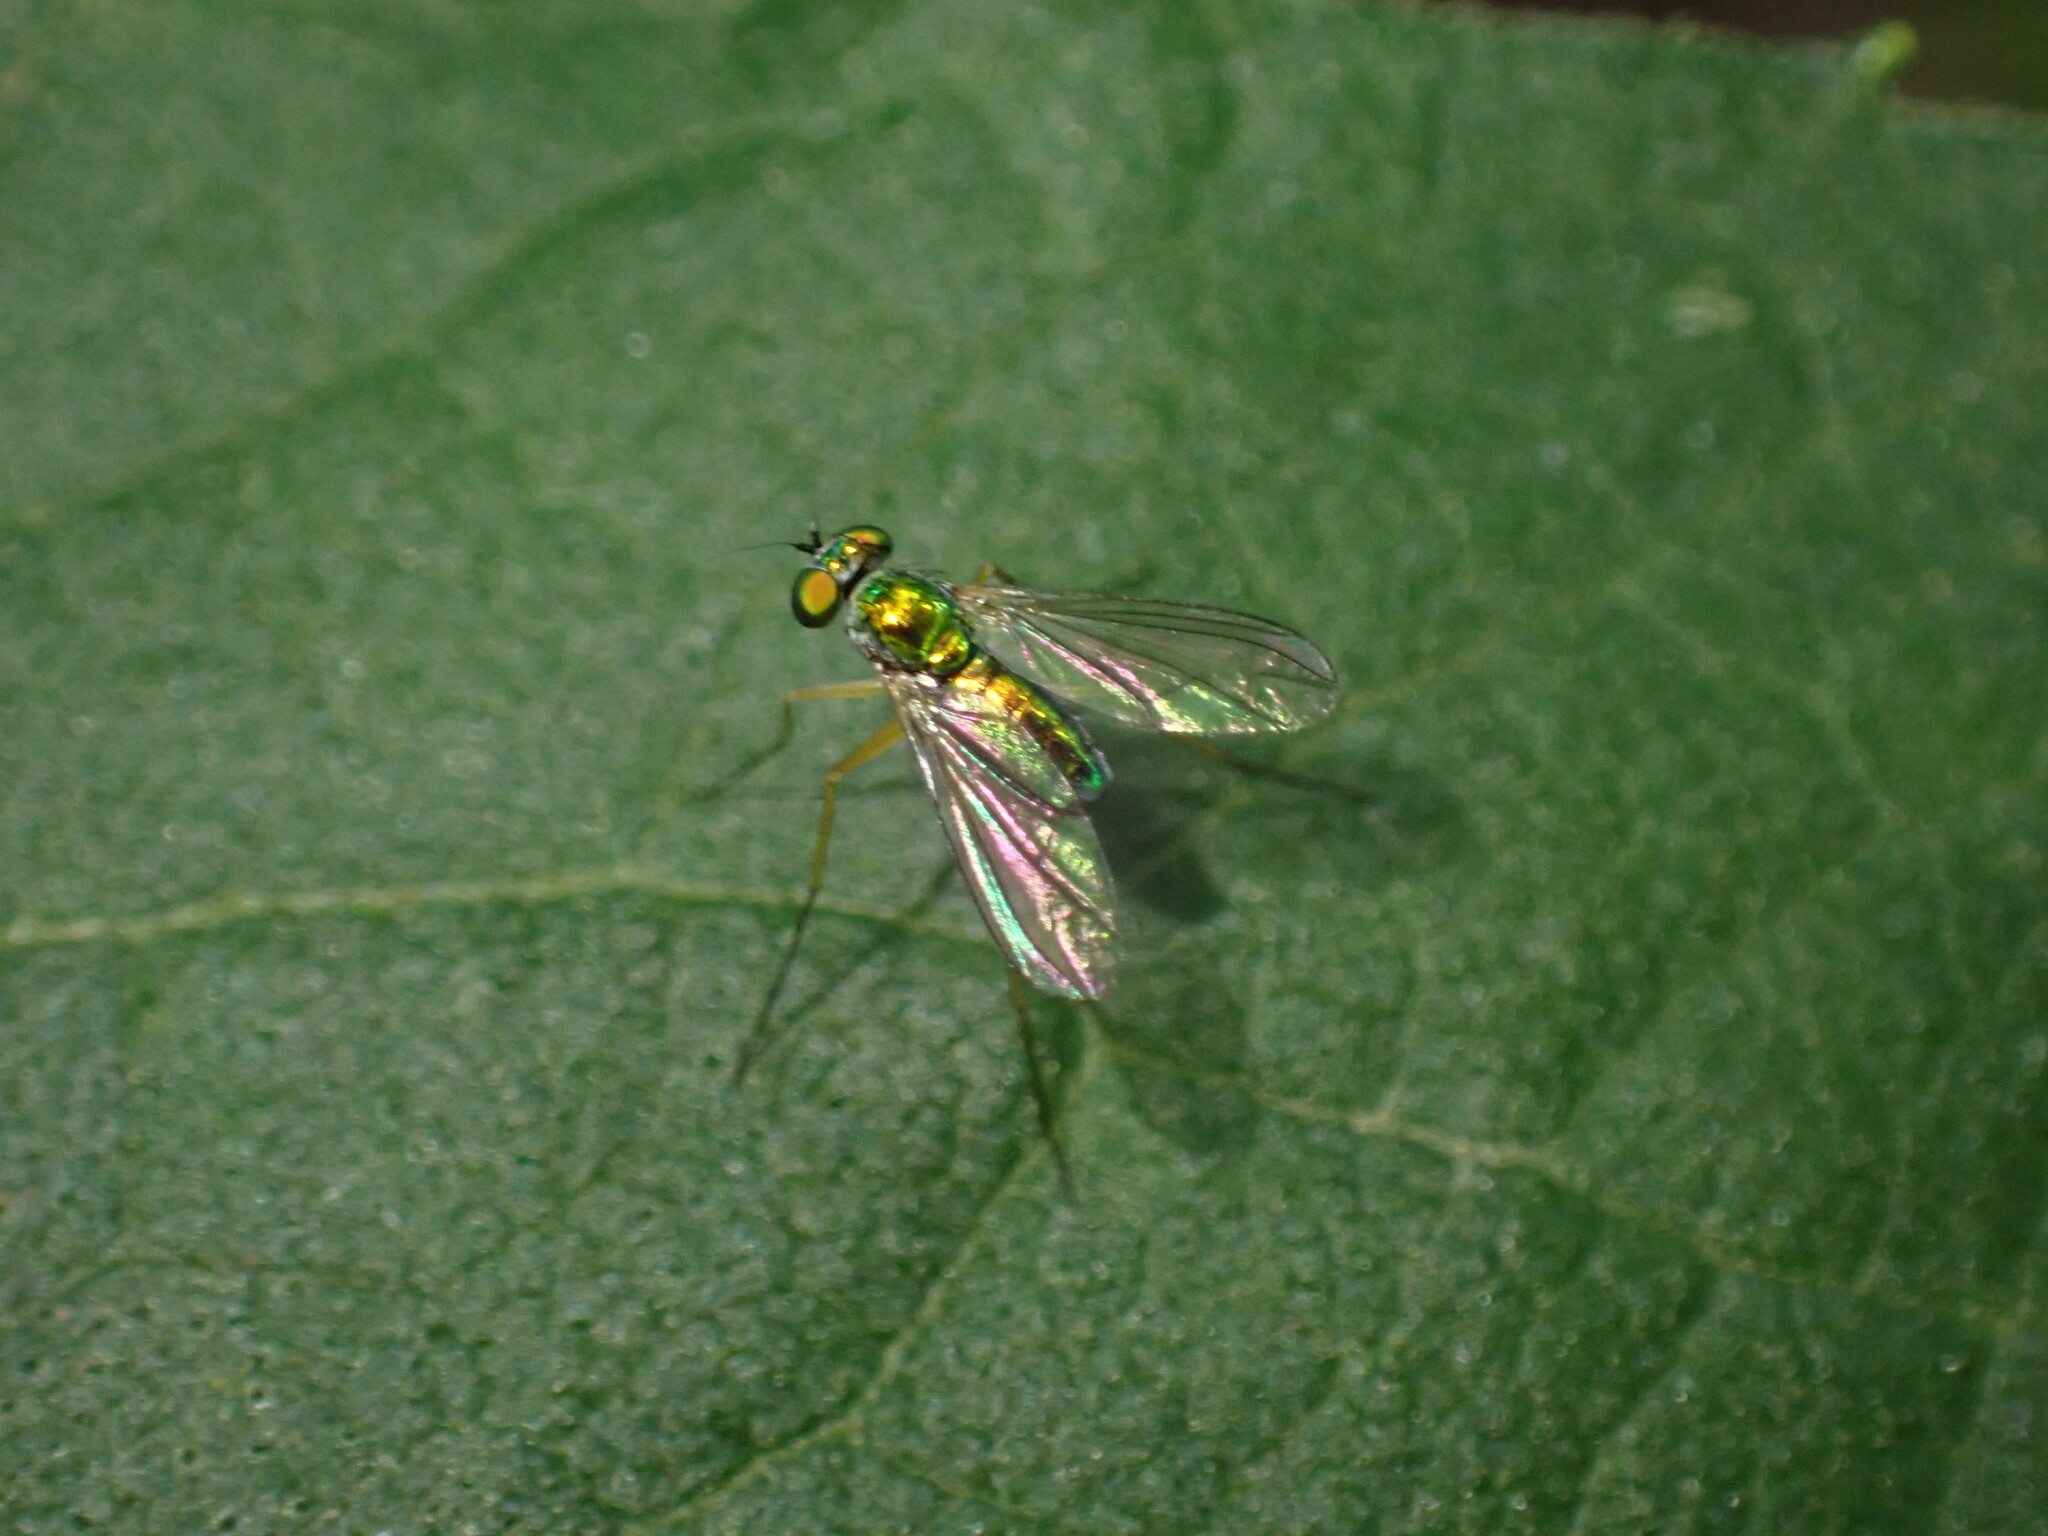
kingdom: Animalia
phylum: Arthropoda
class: Insecta
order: Diptera
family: Dolichopodidae
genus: Amblypsilopus
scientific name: Amblypsilopus scintillans
